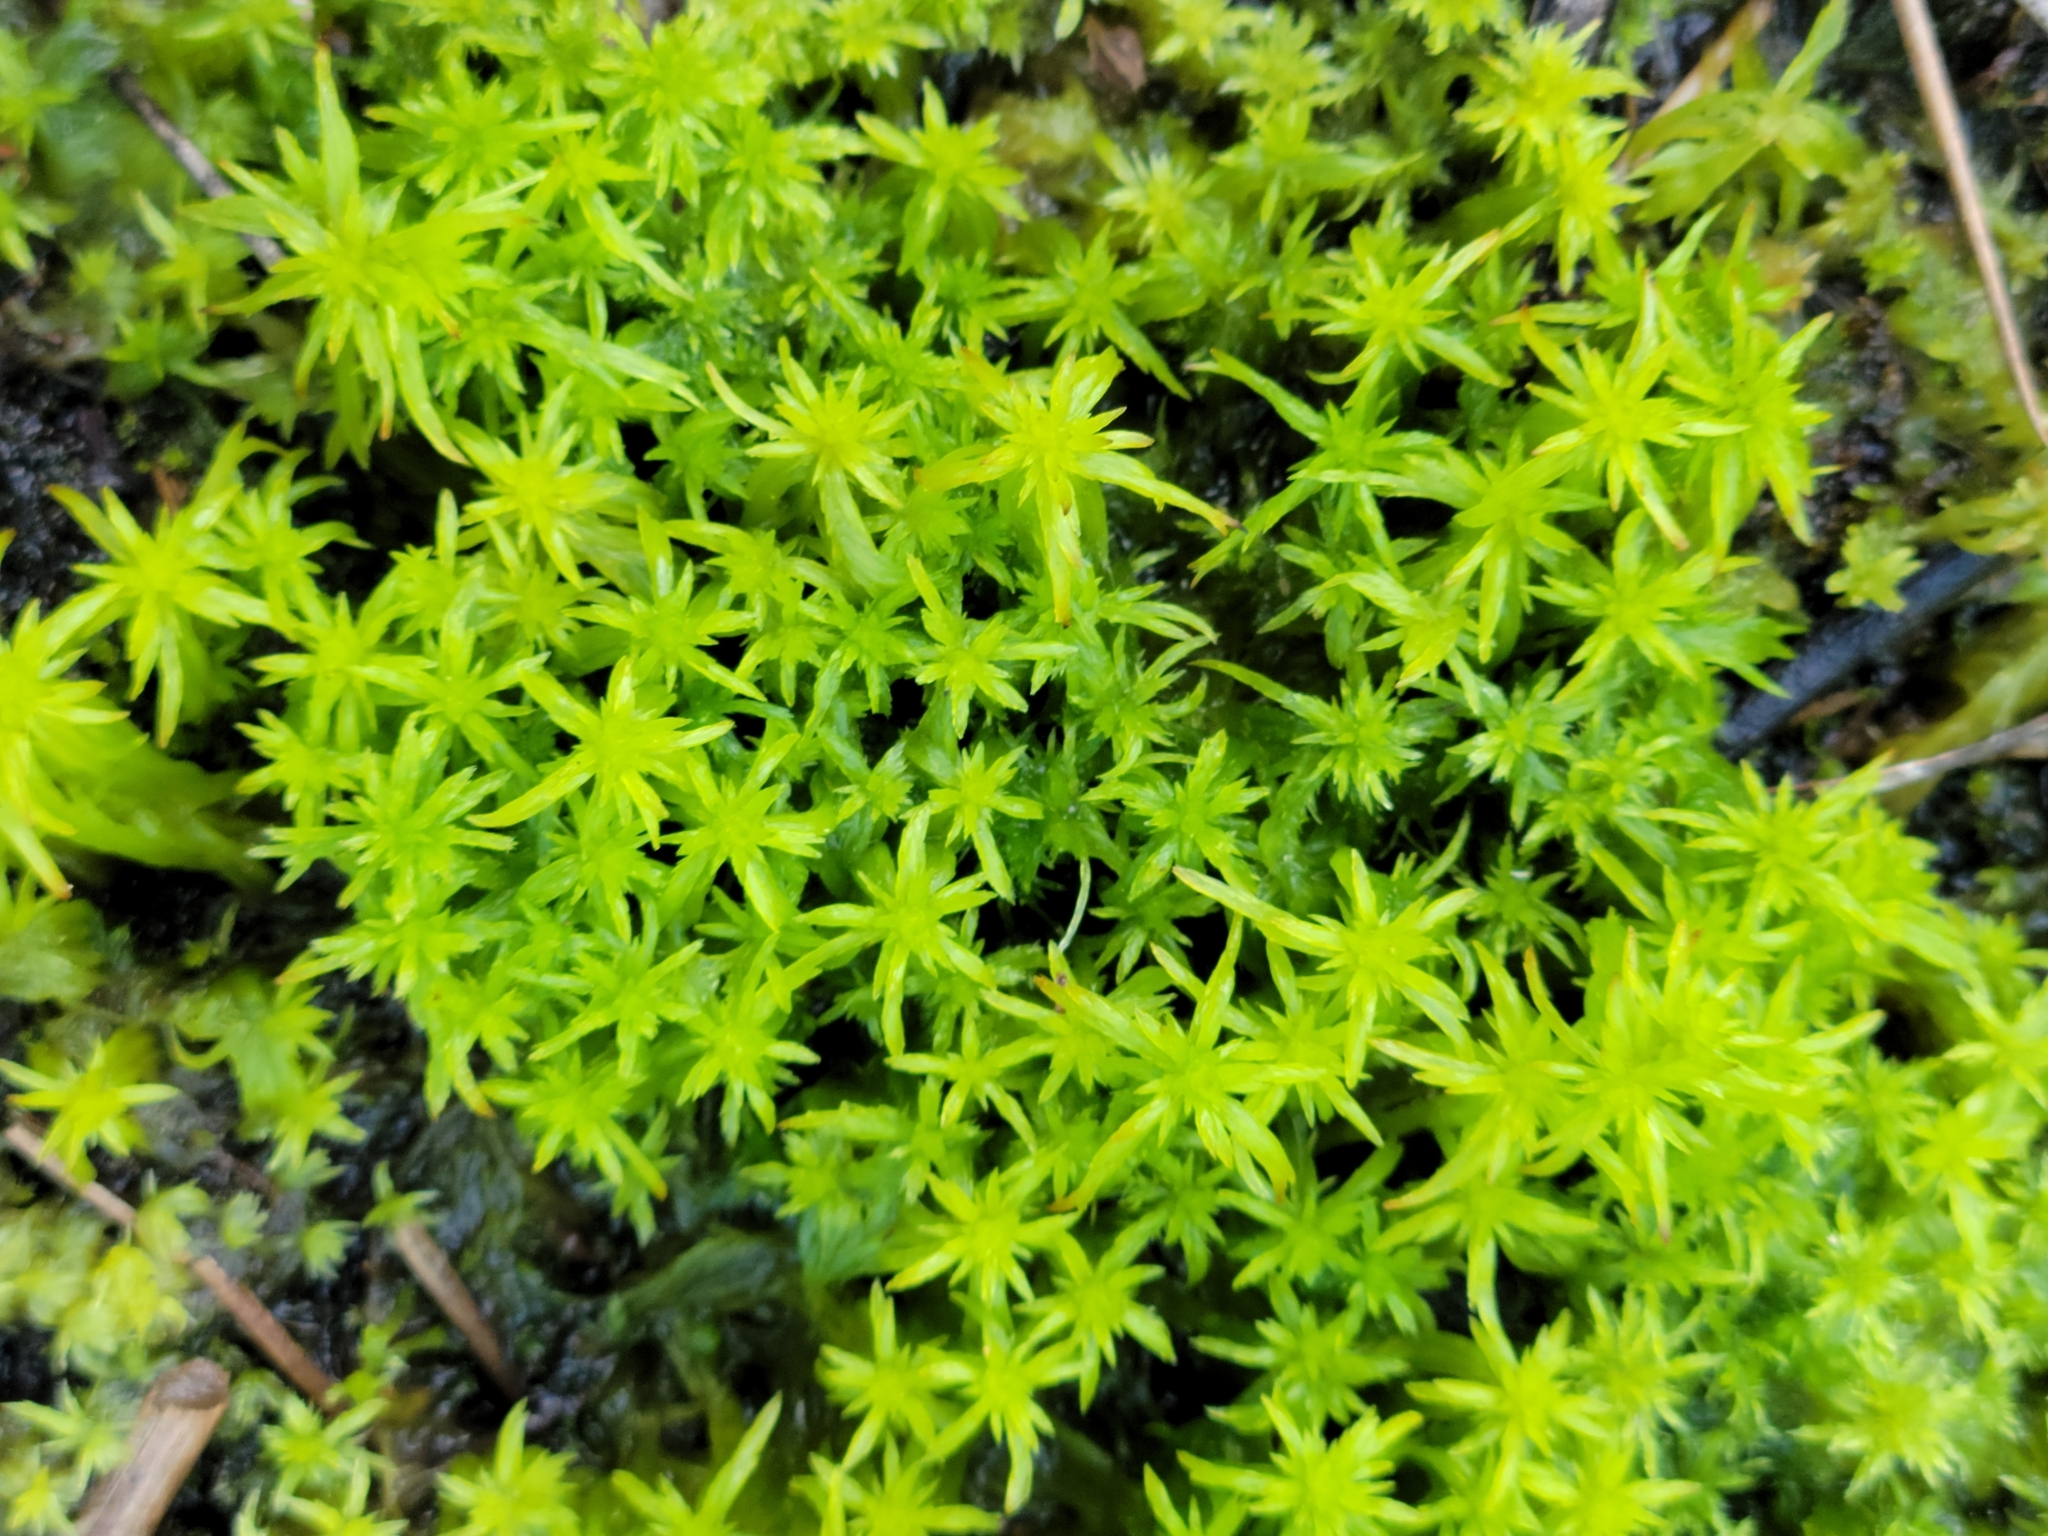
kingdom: Plantae
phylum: Bryophyta
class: Sphagnopsida
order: Sphagnales
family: Sphagnaceae
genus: Sphagnum
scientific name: Sphagnum cuspidatum
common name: Feathery peat moss
